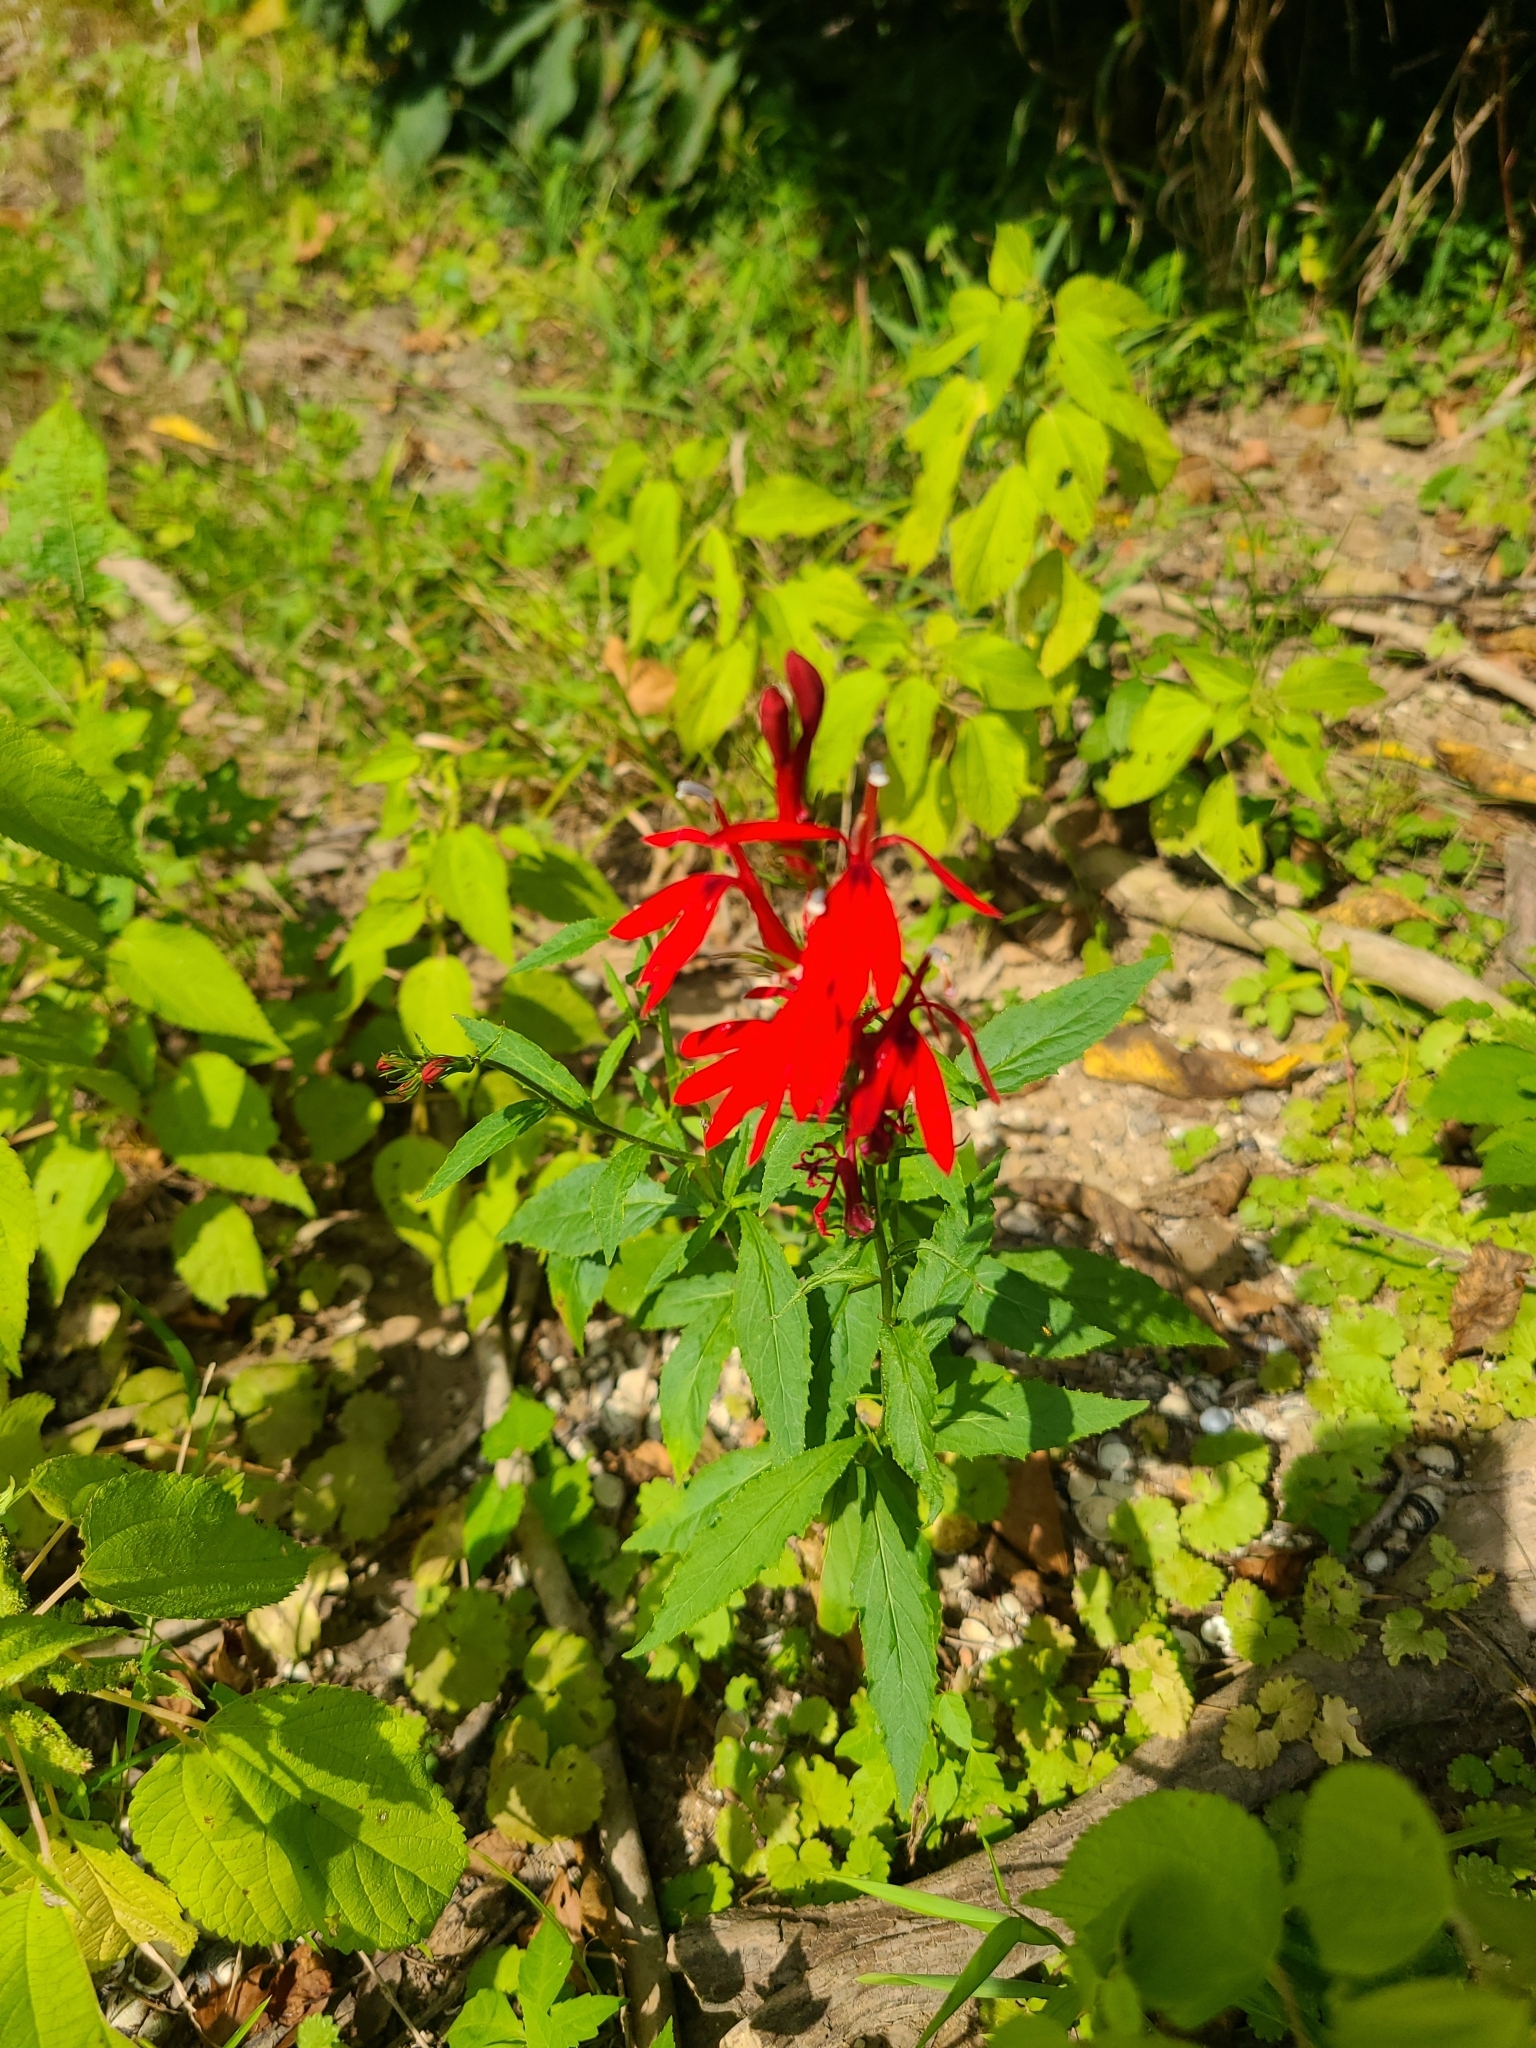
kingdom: Plantae
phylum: Tracheophyta
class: Magnoliopsida
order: Asterales
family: Campanulaceae
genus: Lobelia
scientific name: Lobelia cardinalis
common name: Cardinal flower
